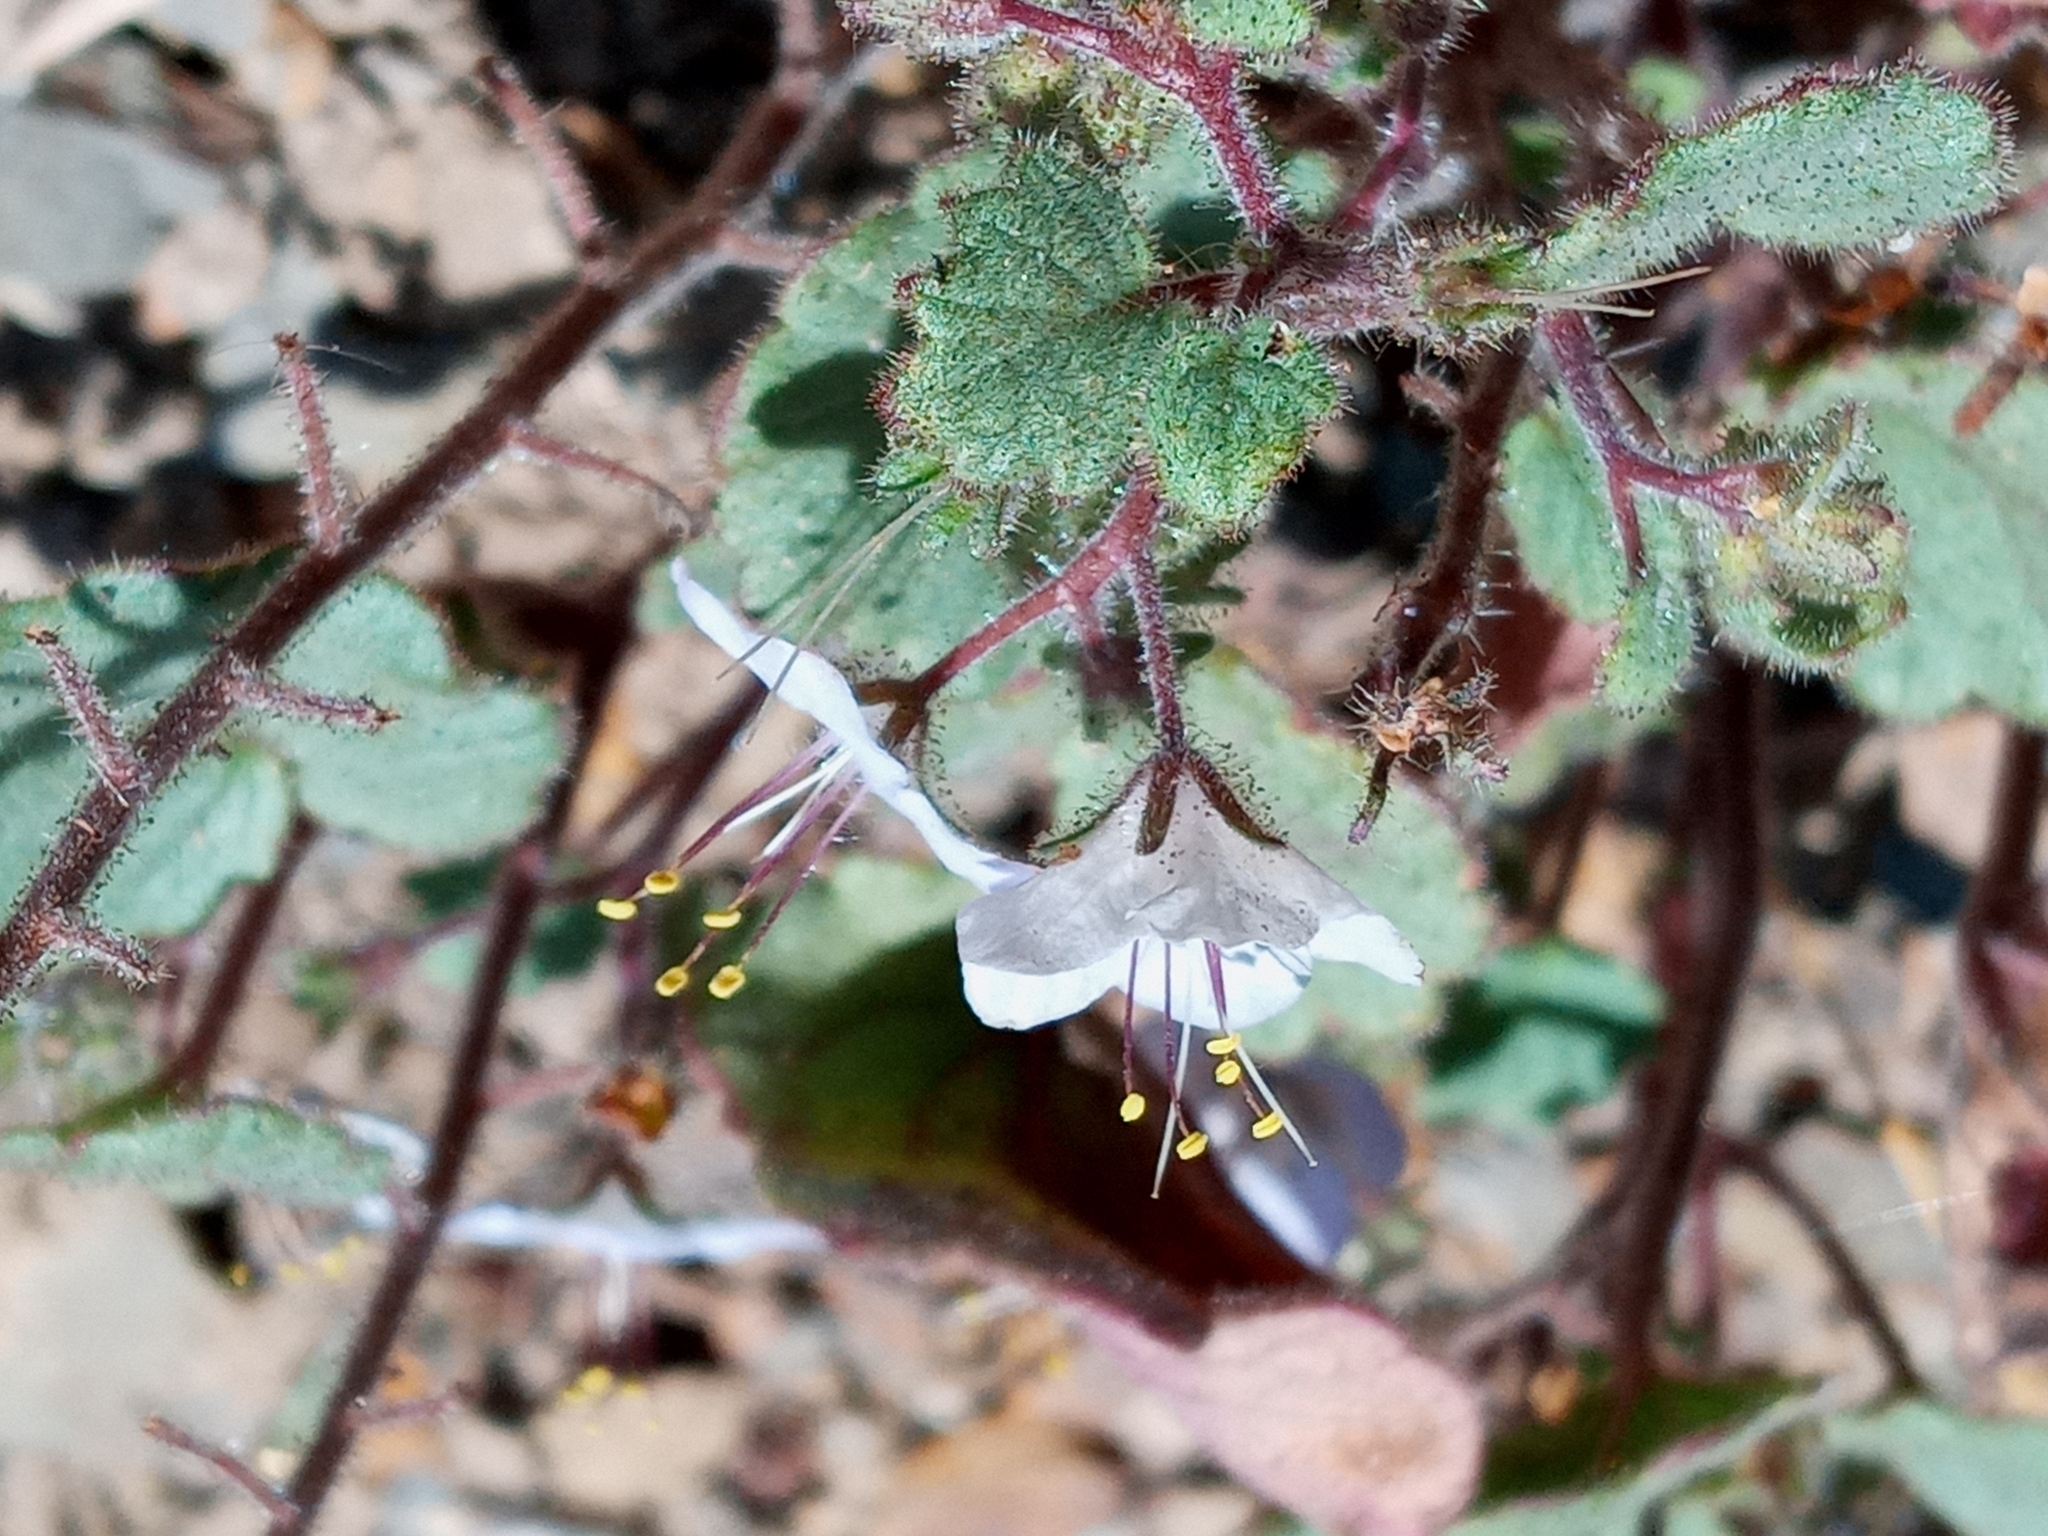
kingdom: Plantae
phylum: Tracheophyta
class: Magnoliopsida
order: Boraginales
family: Hydrophyllaceae
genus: Phacelia
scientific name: Phacelia longipes
